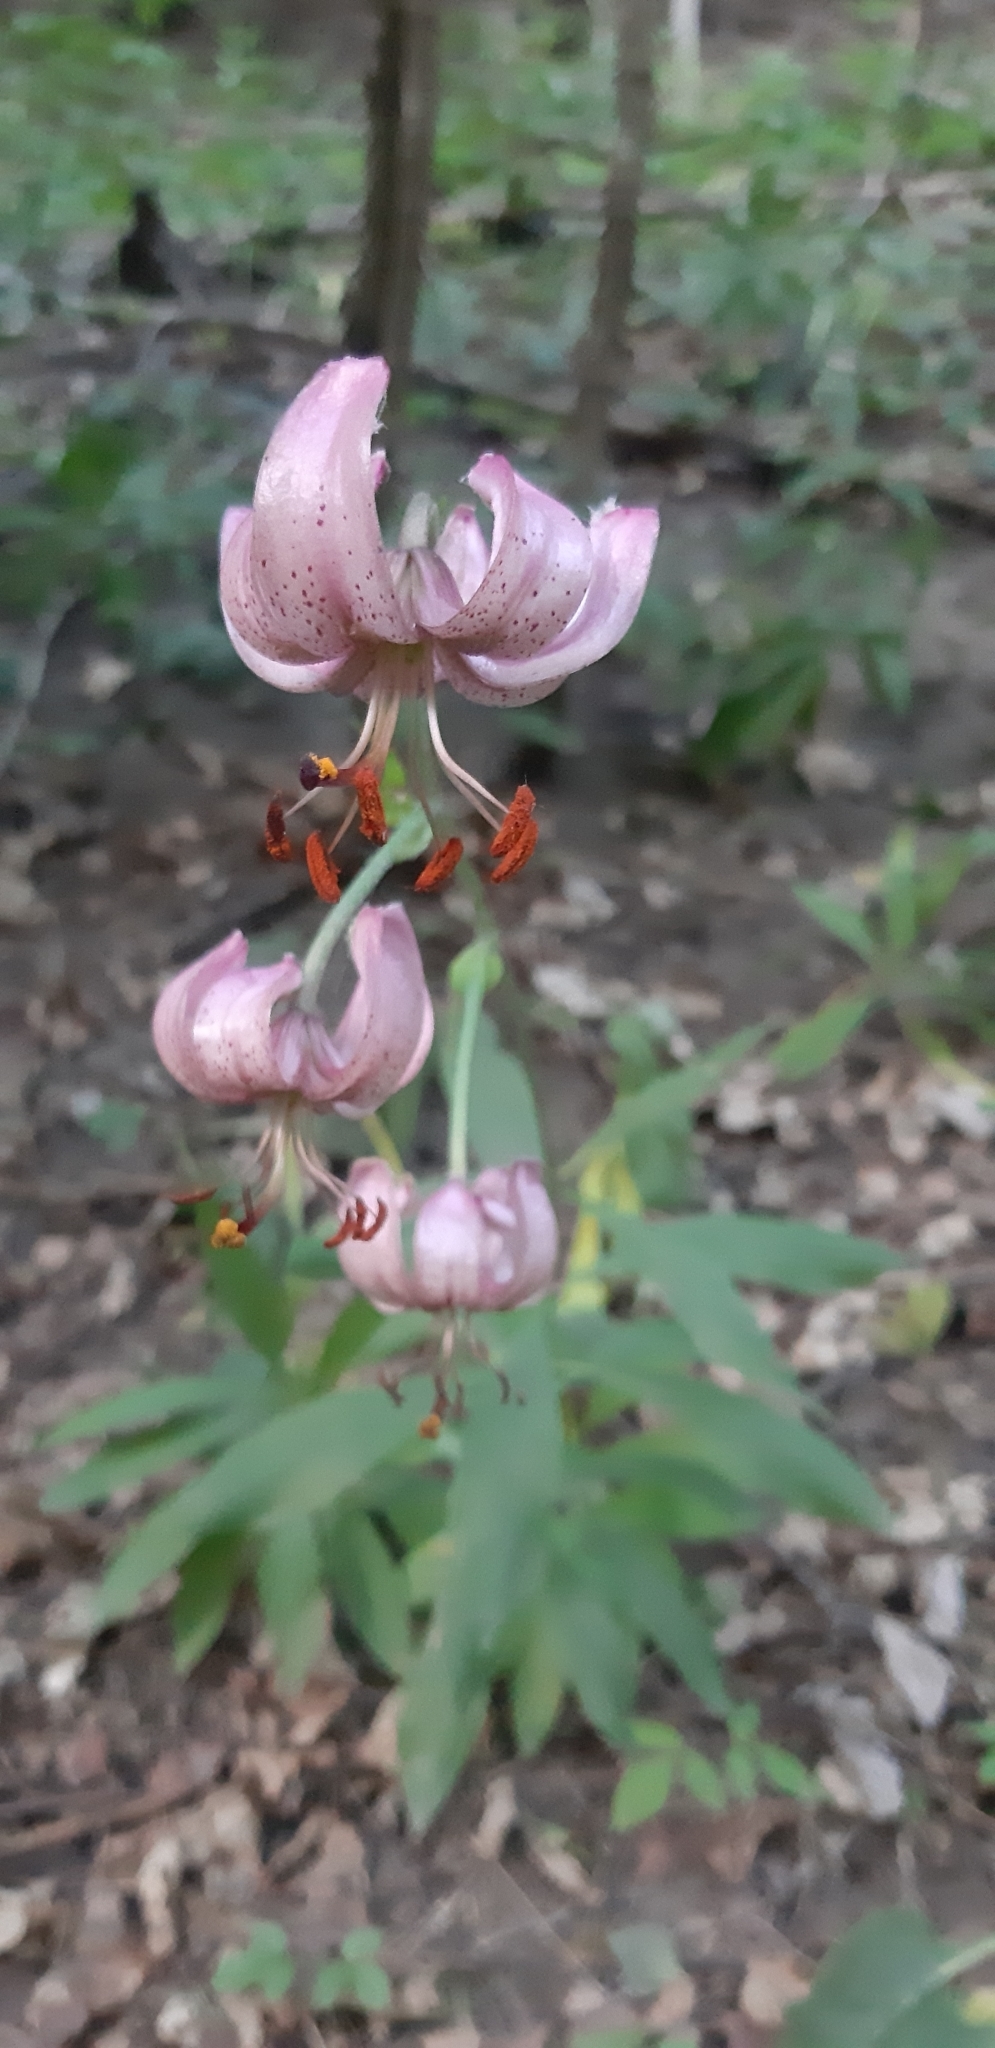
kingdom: Plantae
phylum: Tracheophyta
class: Liliopsida
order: Liliales
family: Liliaceae
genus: Lilium
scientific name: Lilium martagon
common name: Martagon lily
